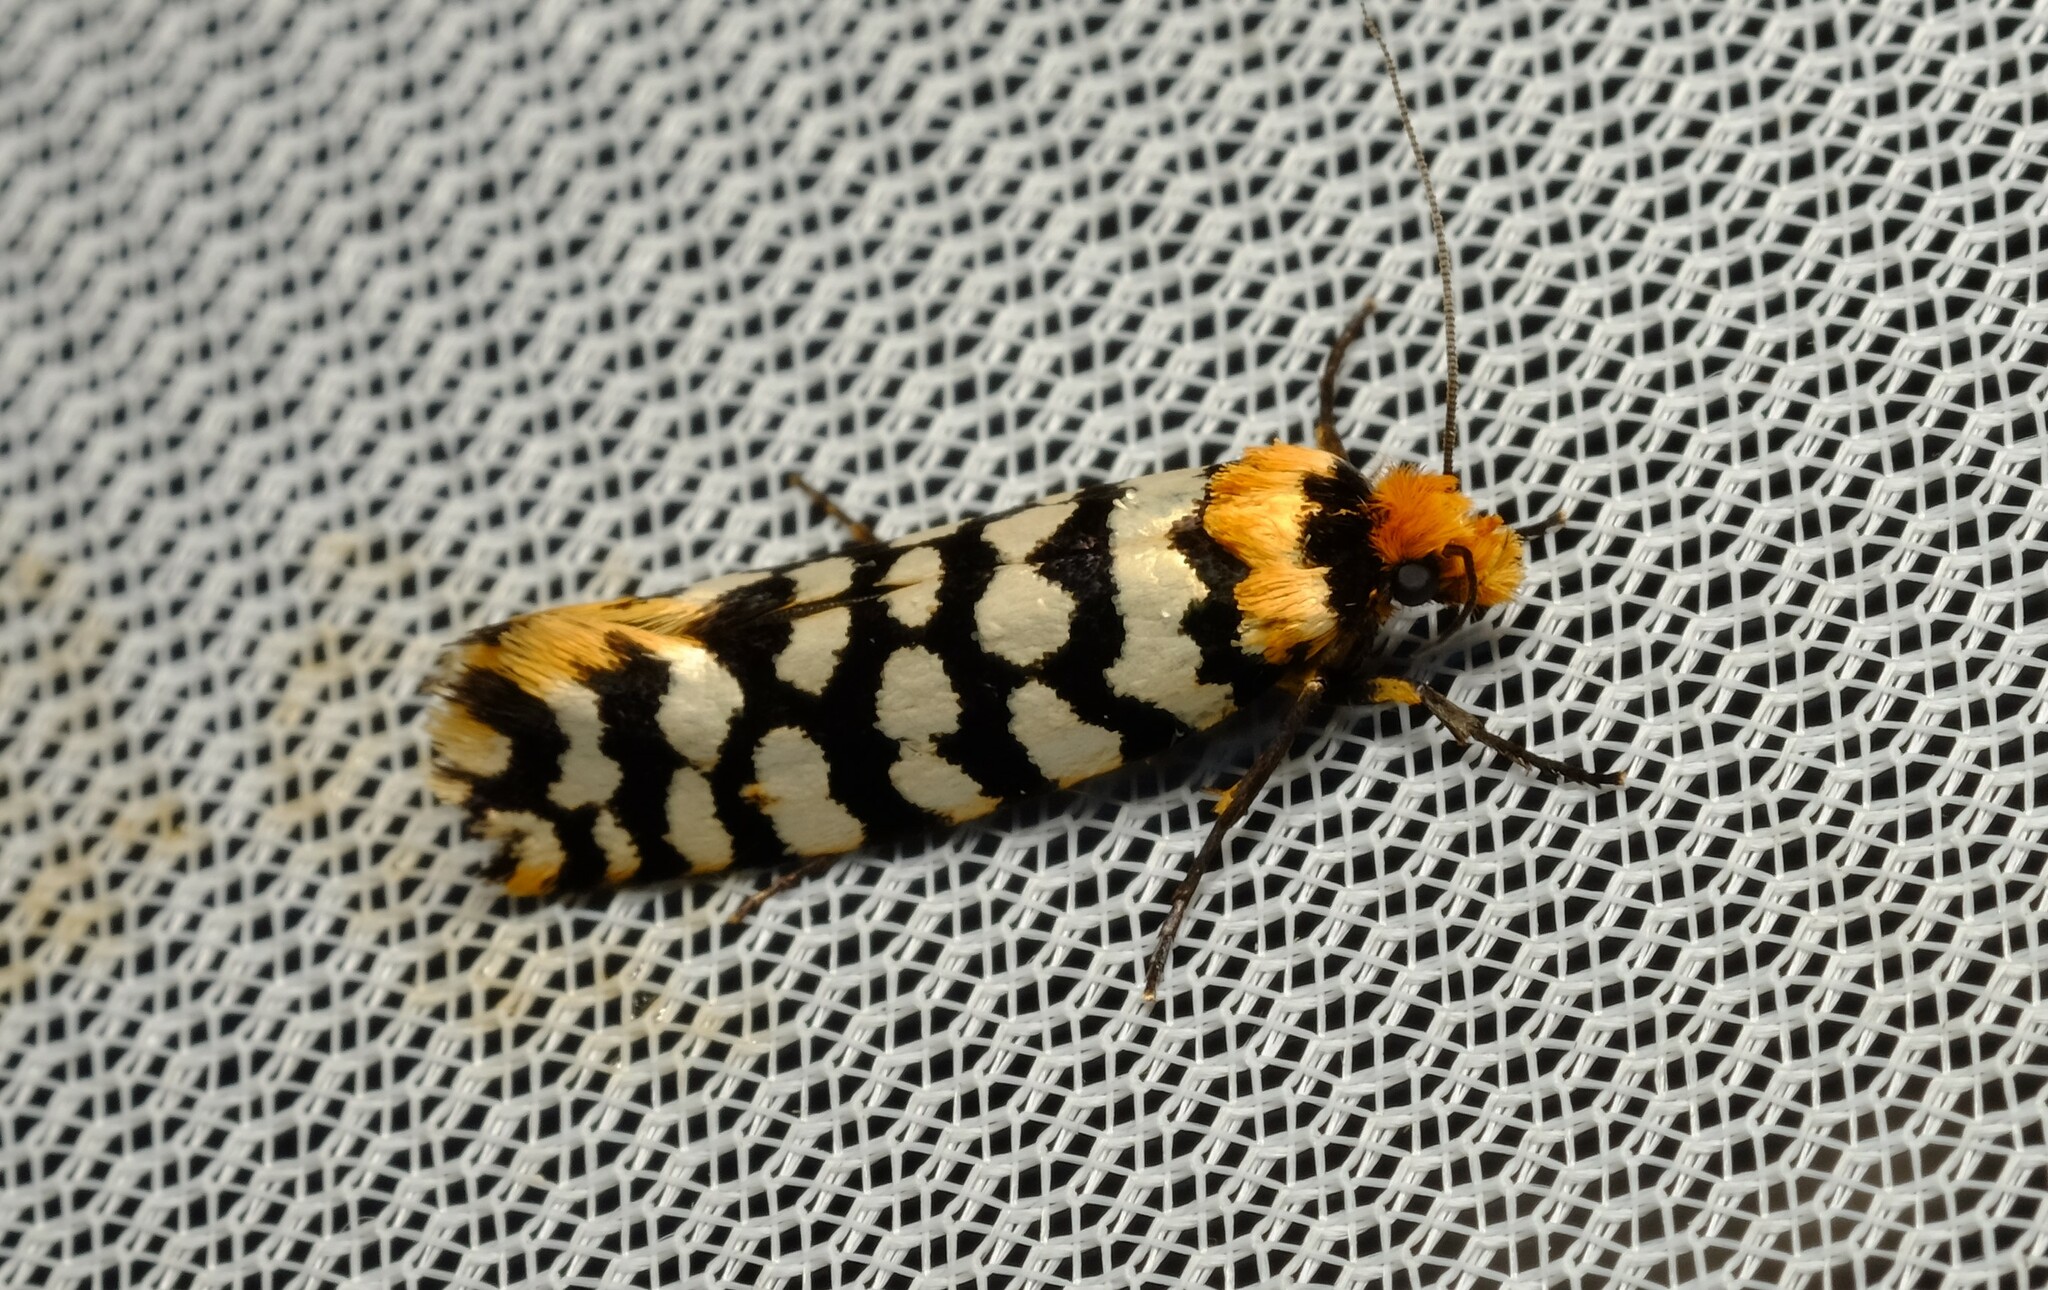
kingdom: Animalia
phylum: Arthropoda
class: Insecta
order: Lepidoptera
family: Tineidae
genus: Moerarchis
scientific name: Moerarchis australasiella
